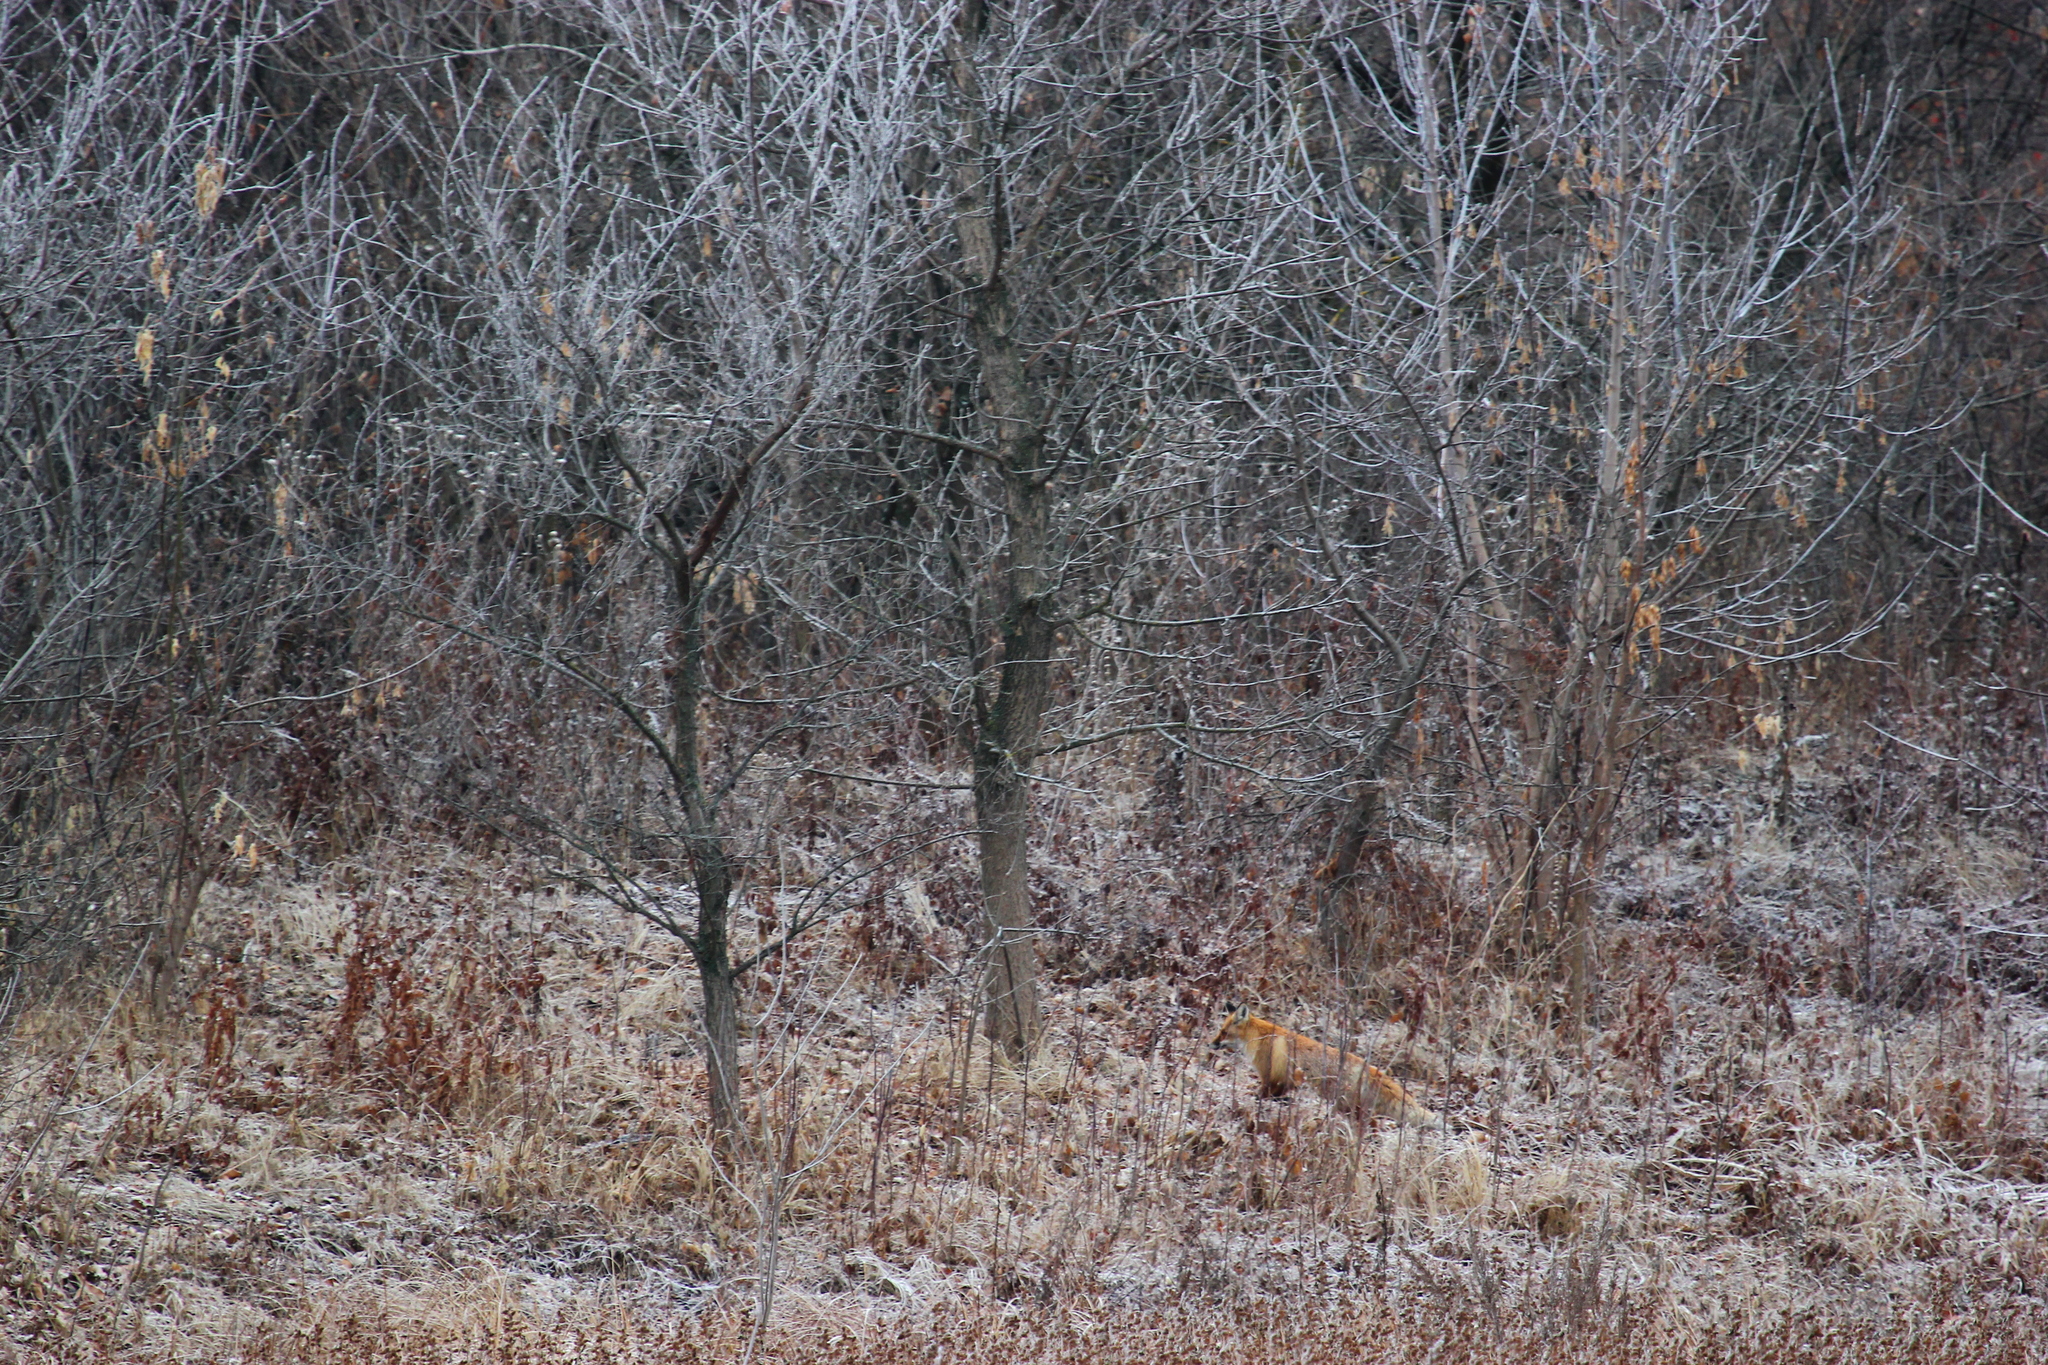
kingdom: Animalia
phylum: Chordata
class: Mammalia
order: Carnivora
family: Canidae
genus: Vulpes
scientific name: Vulpes vulpes
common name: Red fox
